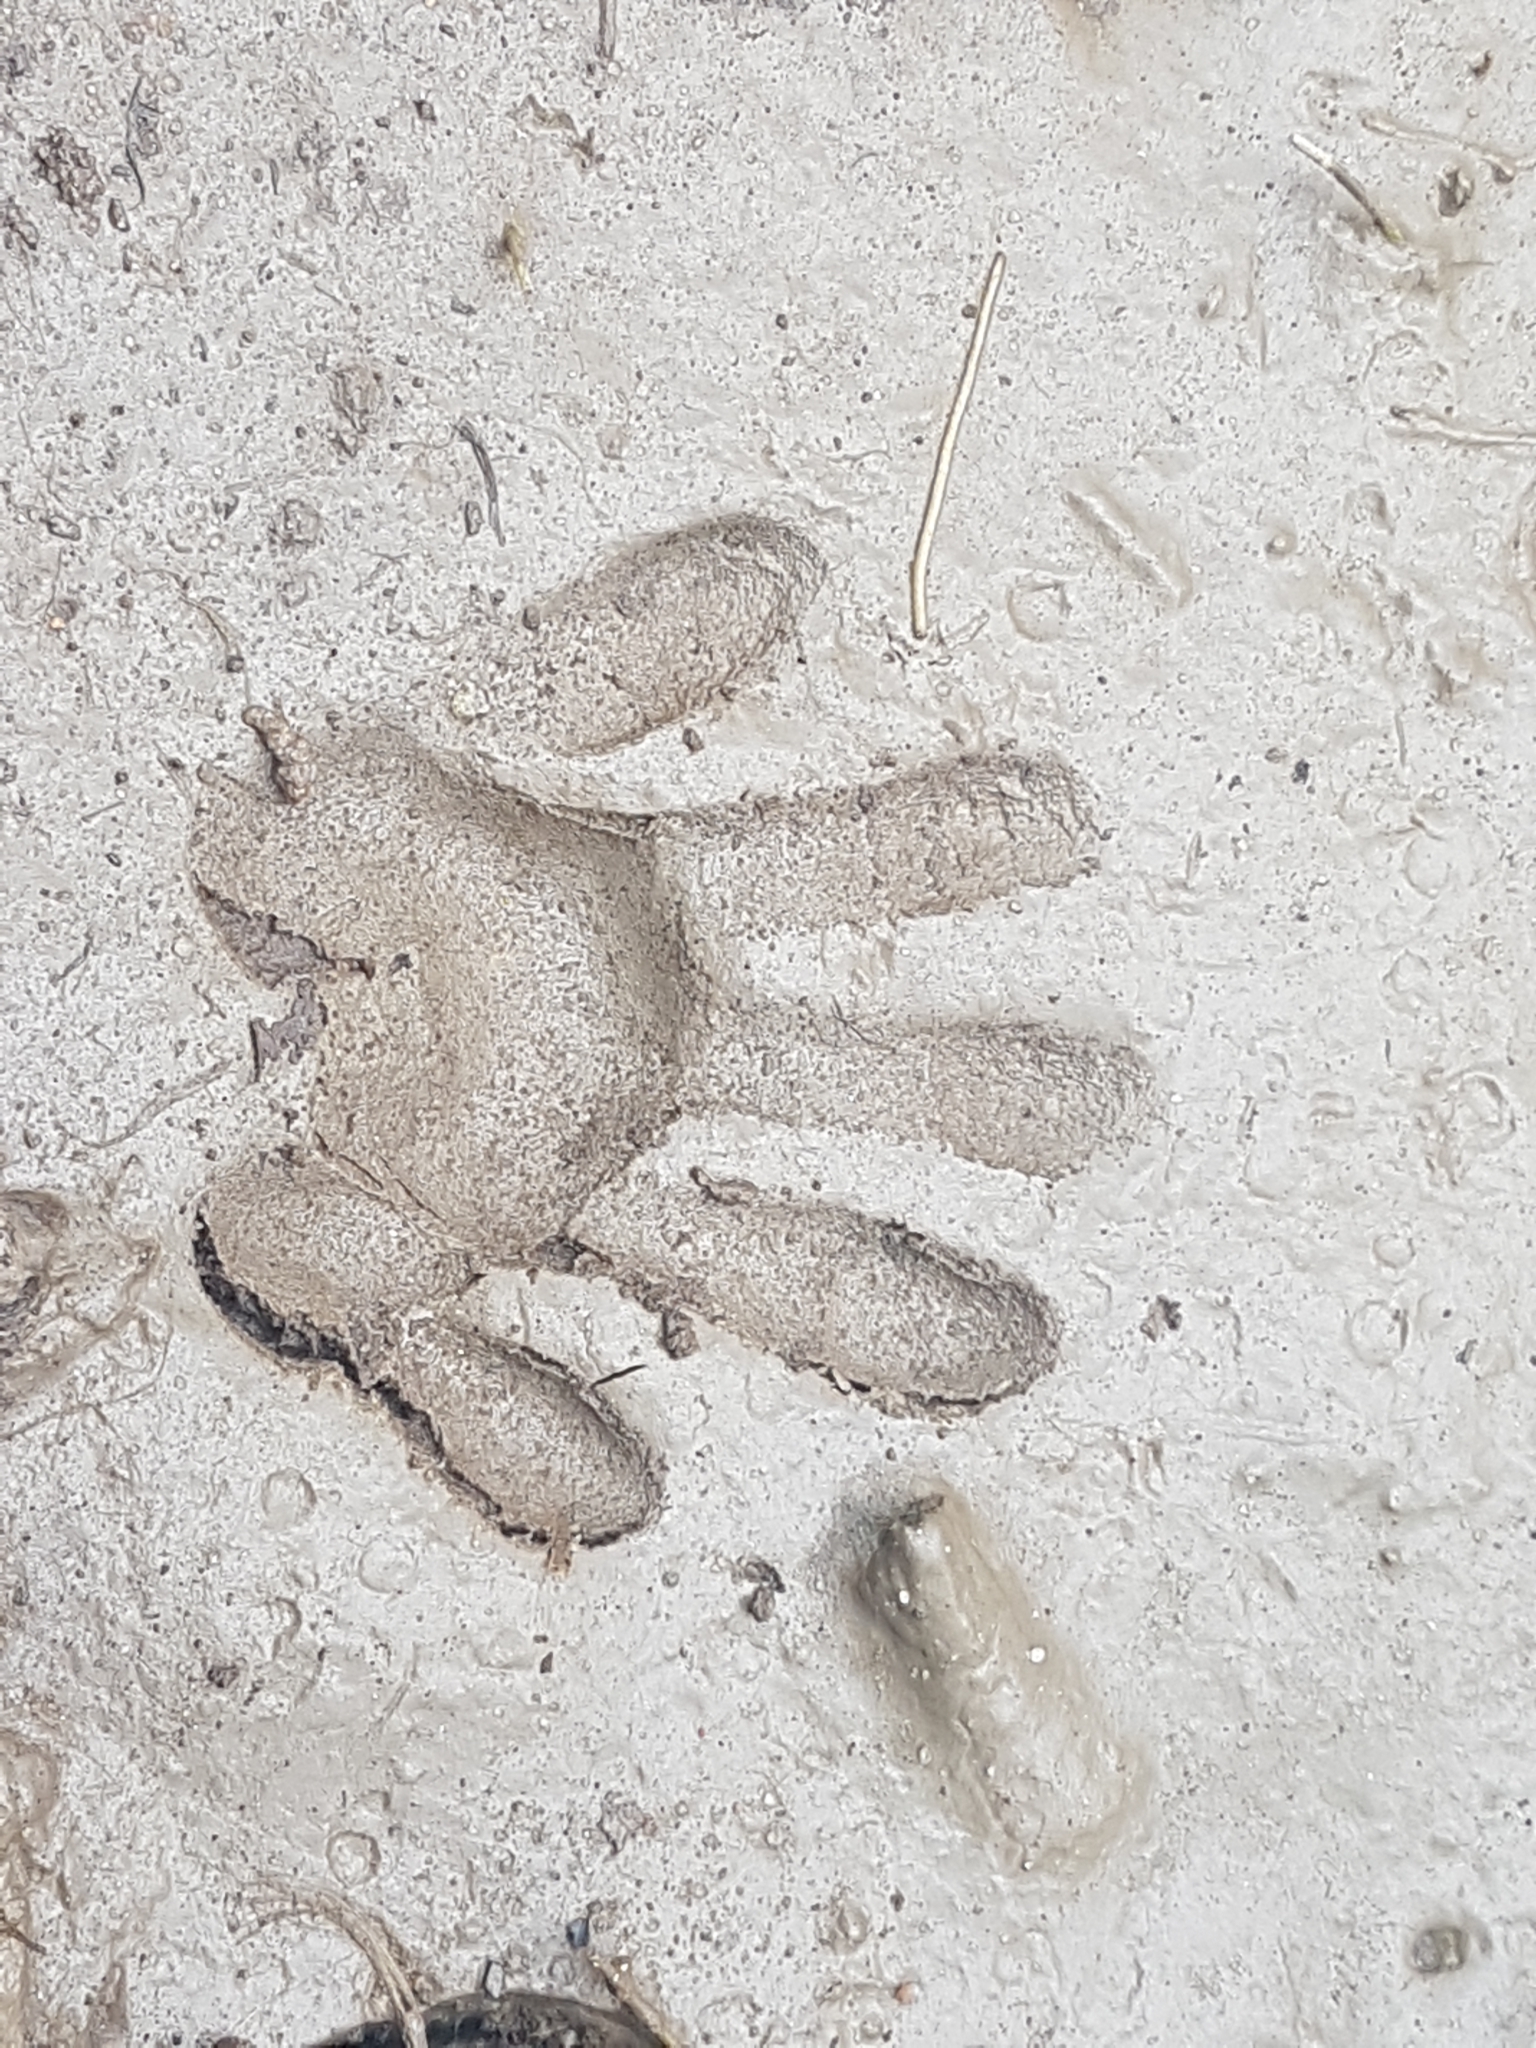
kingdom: Animalia
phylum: Chordata
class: Mammalia
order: Carnivora
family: Procyonidae
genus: Procyon
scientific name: Procyon lotor
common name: Raccoon
